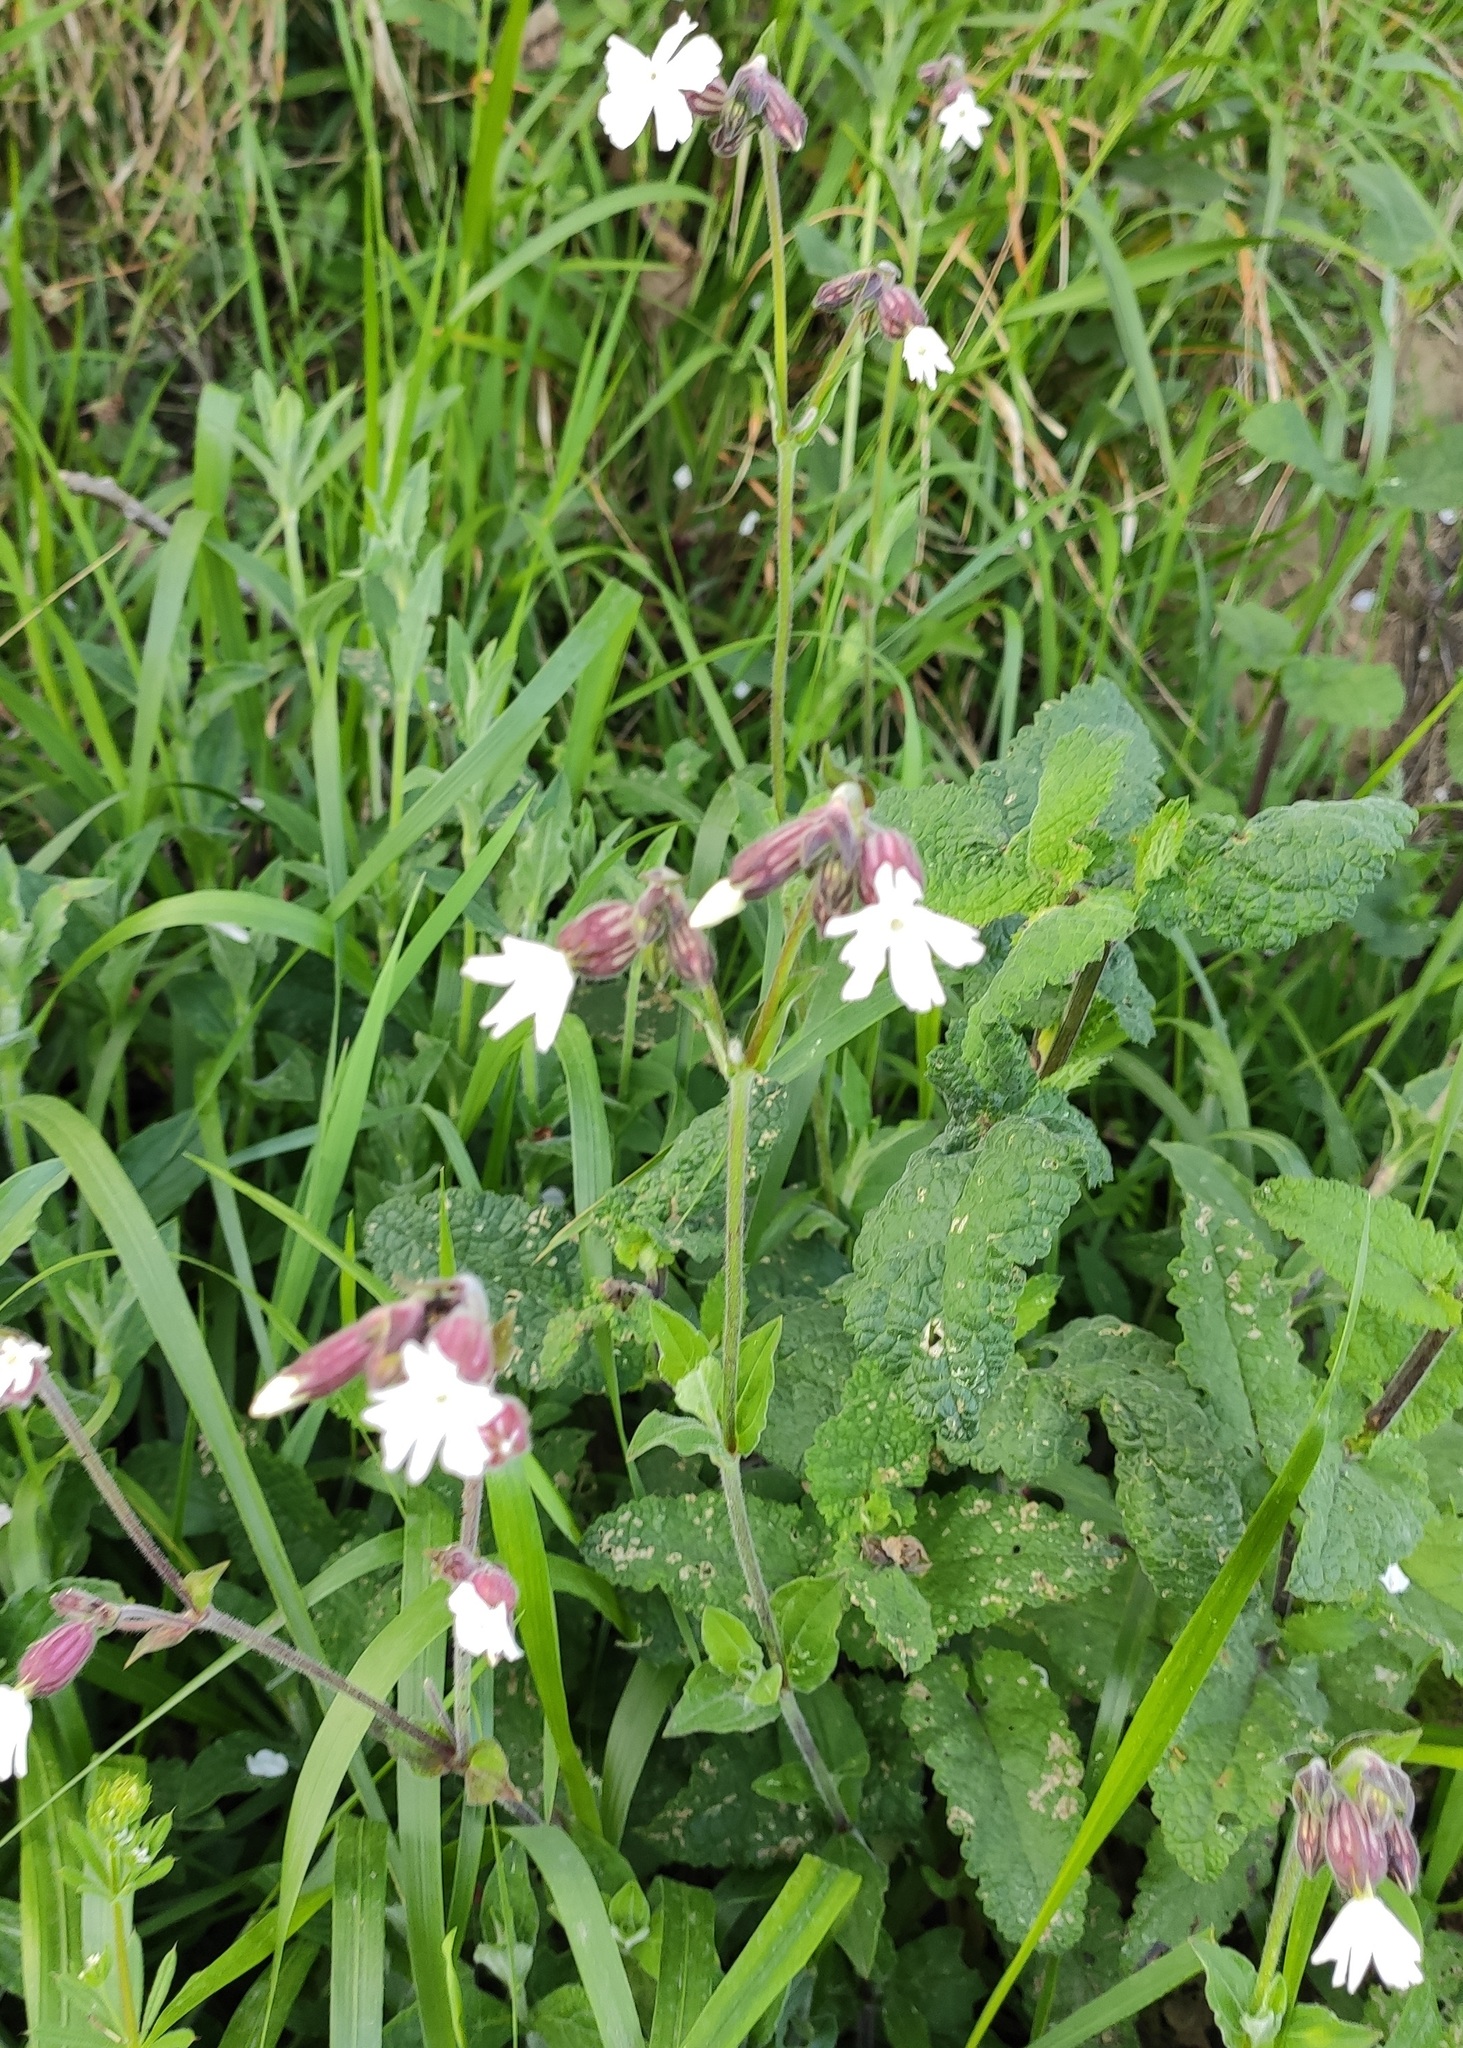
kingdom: Plantae
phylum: Tracheophyta
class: Magnoliopsida
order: Caryophyllales
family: Caryophyllaceae
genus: Silene
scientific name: Silene latifolia
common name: White campion
